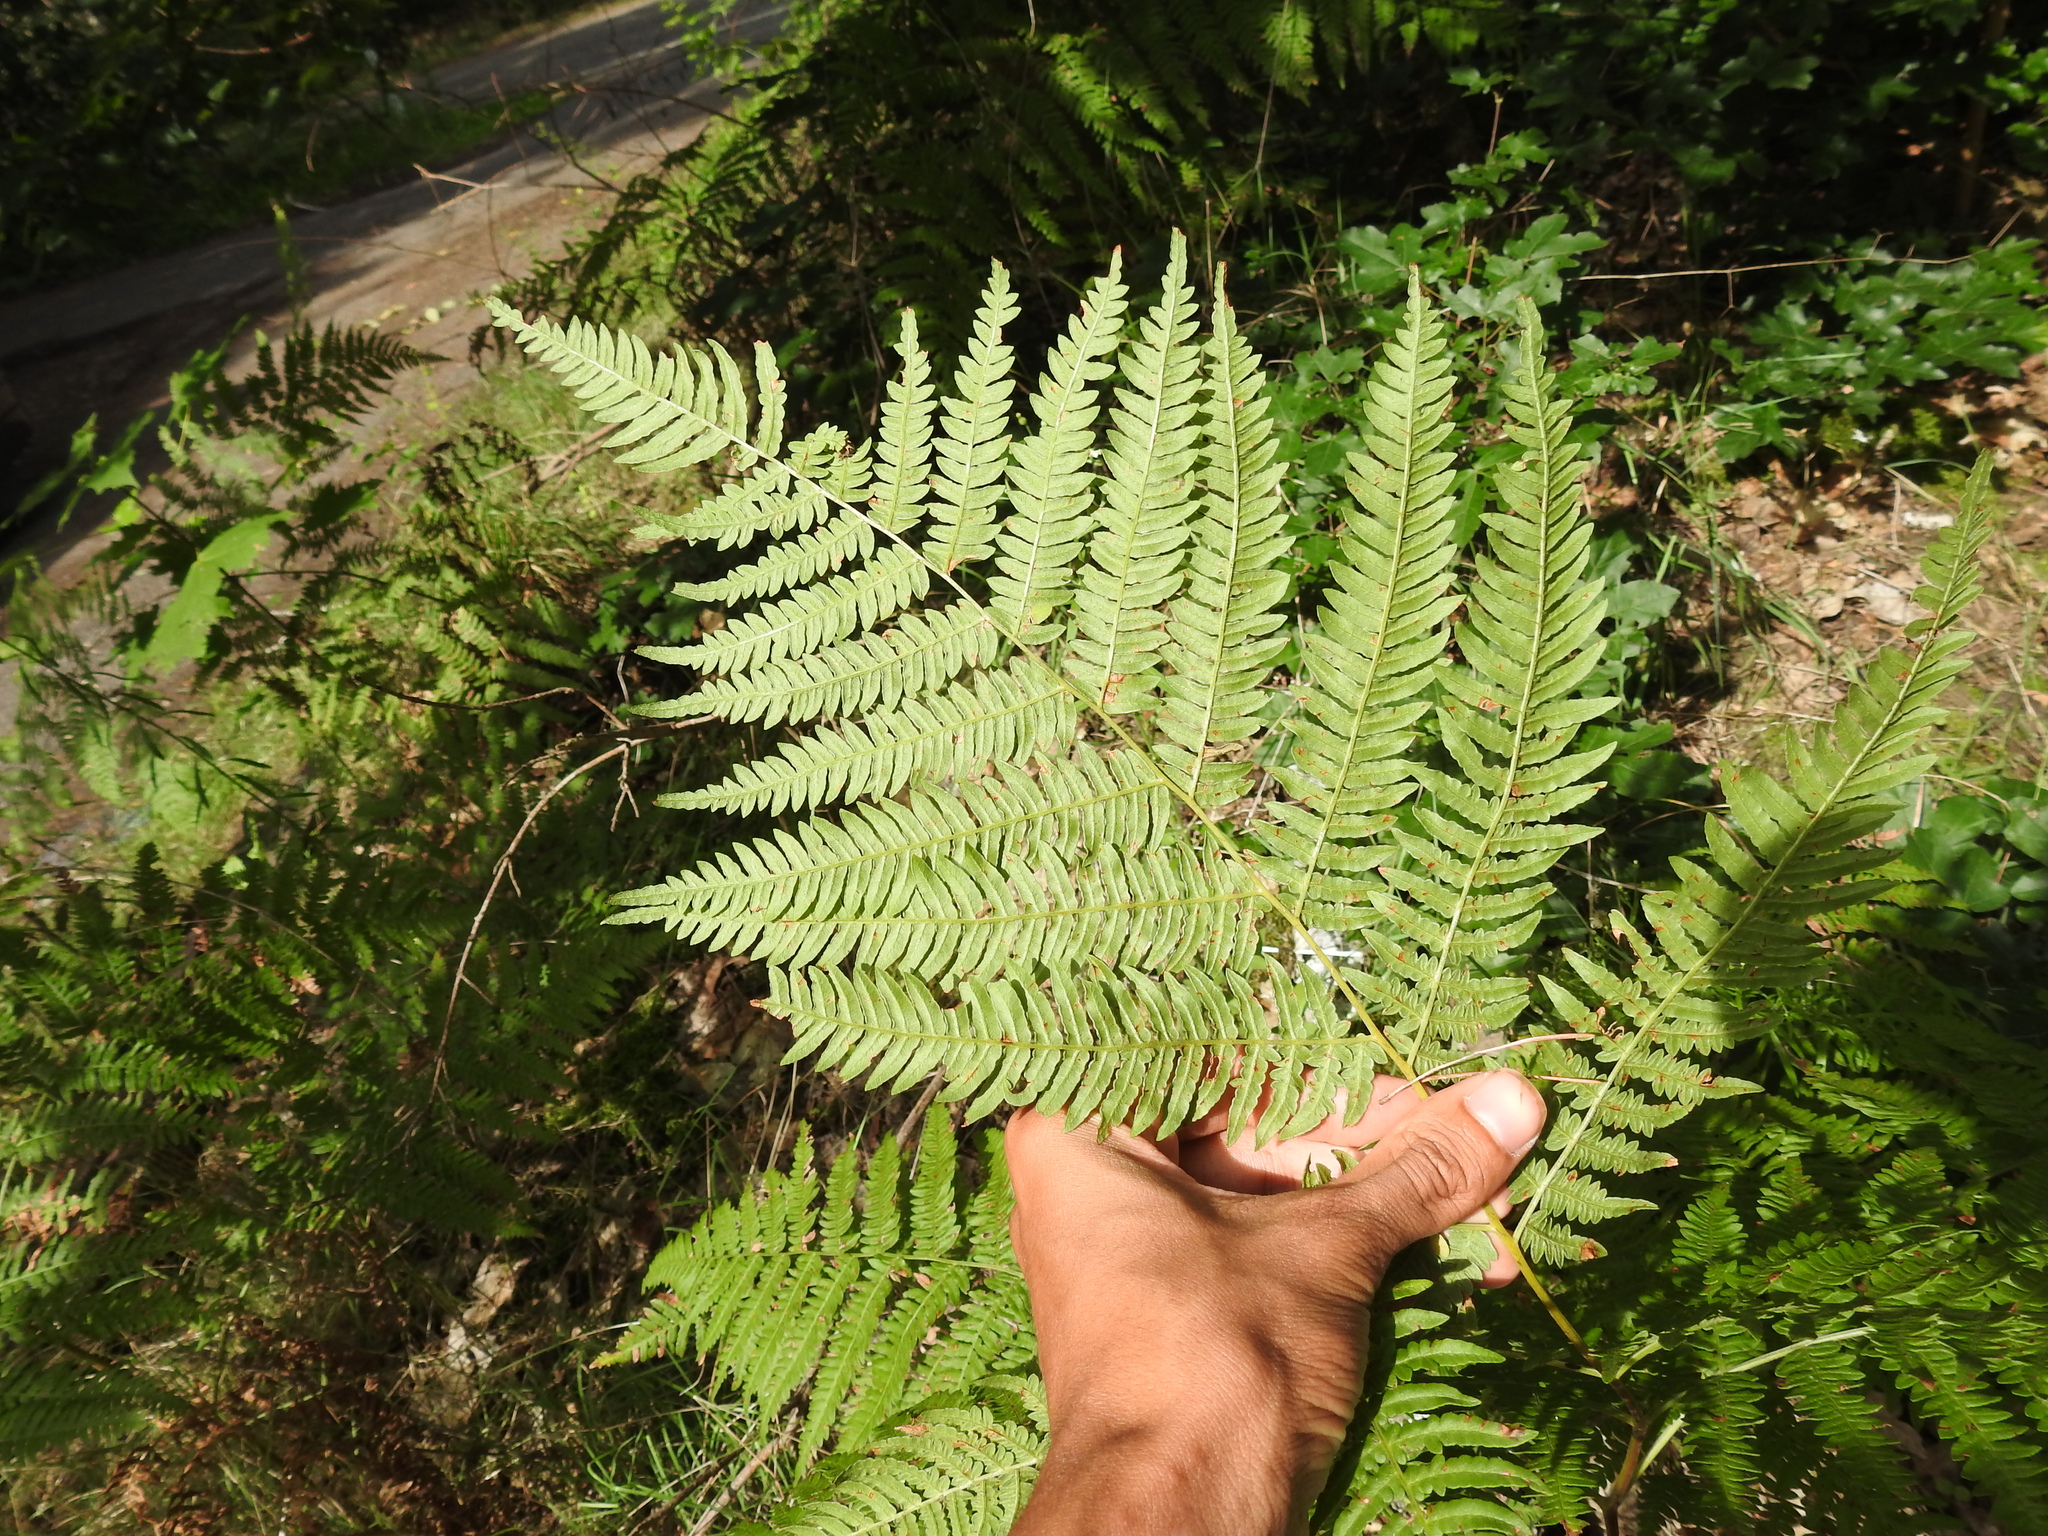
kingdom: Plantae
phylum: Tracheophyta
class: Polypodiopsida
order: Polypodiales
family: Dennstaedtiaceae
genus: Pteridium
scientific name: Pteridium aquilinum
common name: Bracken
